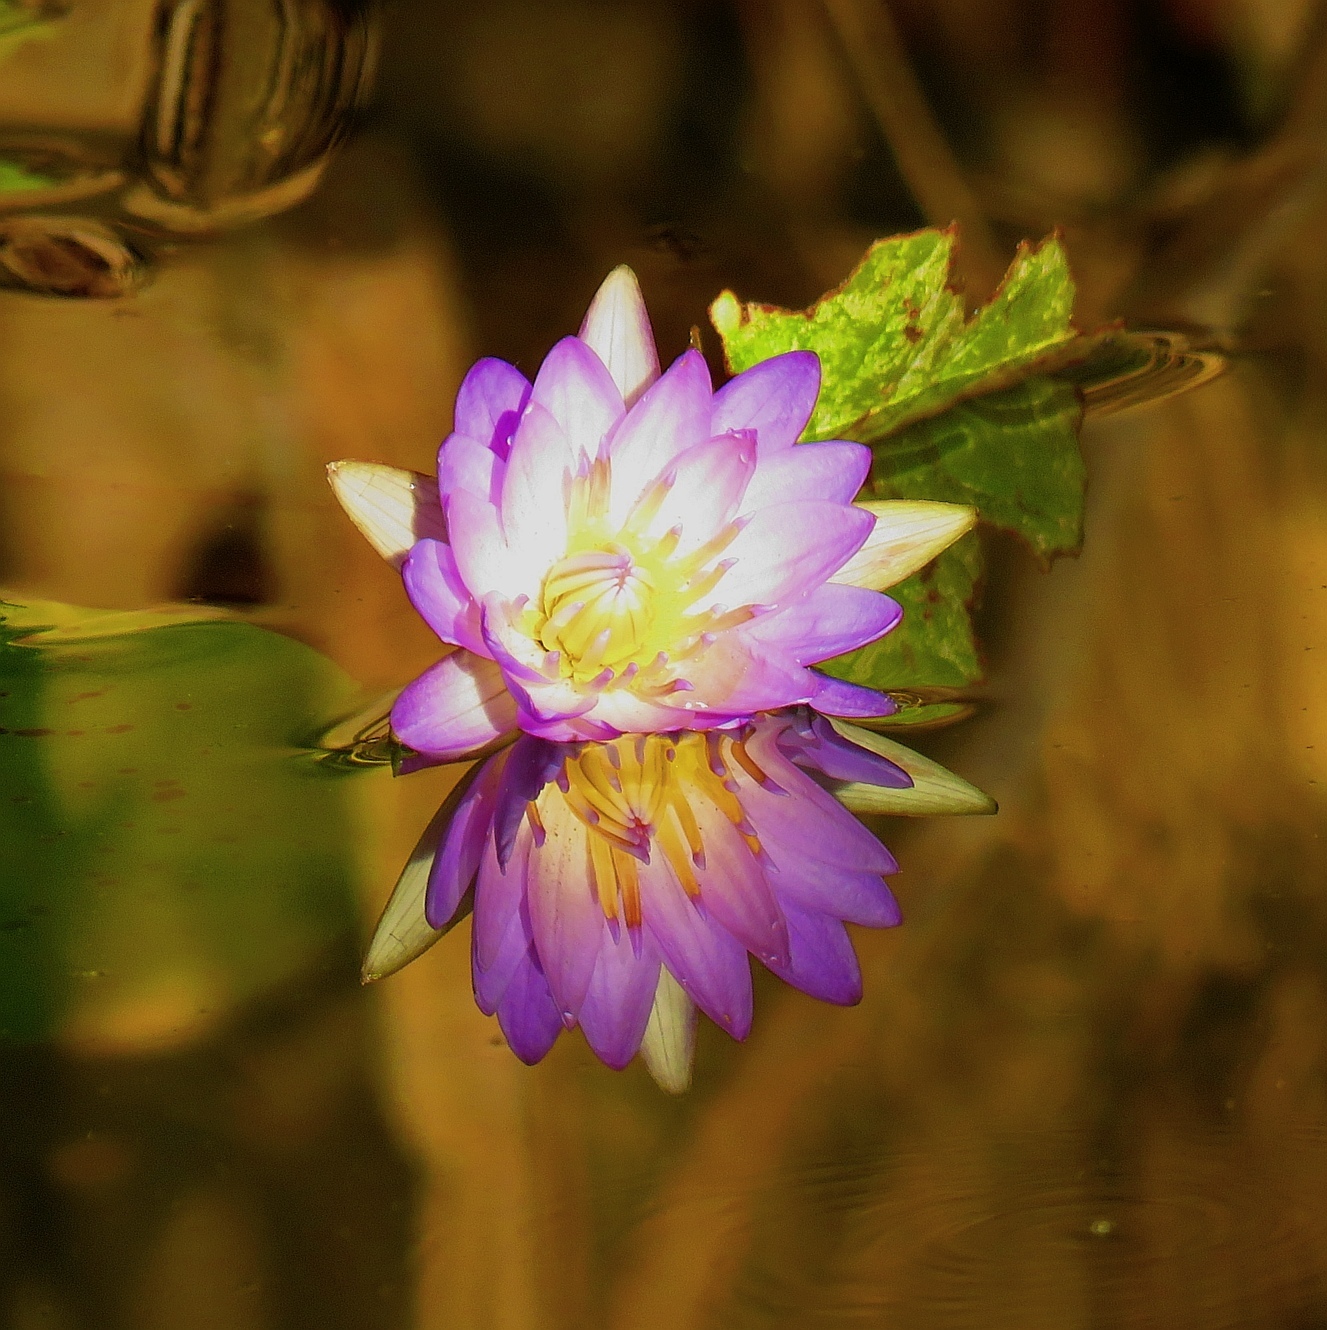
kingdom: Plantae
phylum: Tracheophyta
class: Magnoliopsida
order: Nymphaeales
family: Nymphaeaceae
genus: Nymphaea
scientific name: Nymphaea nouchali
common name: Blue lotus
